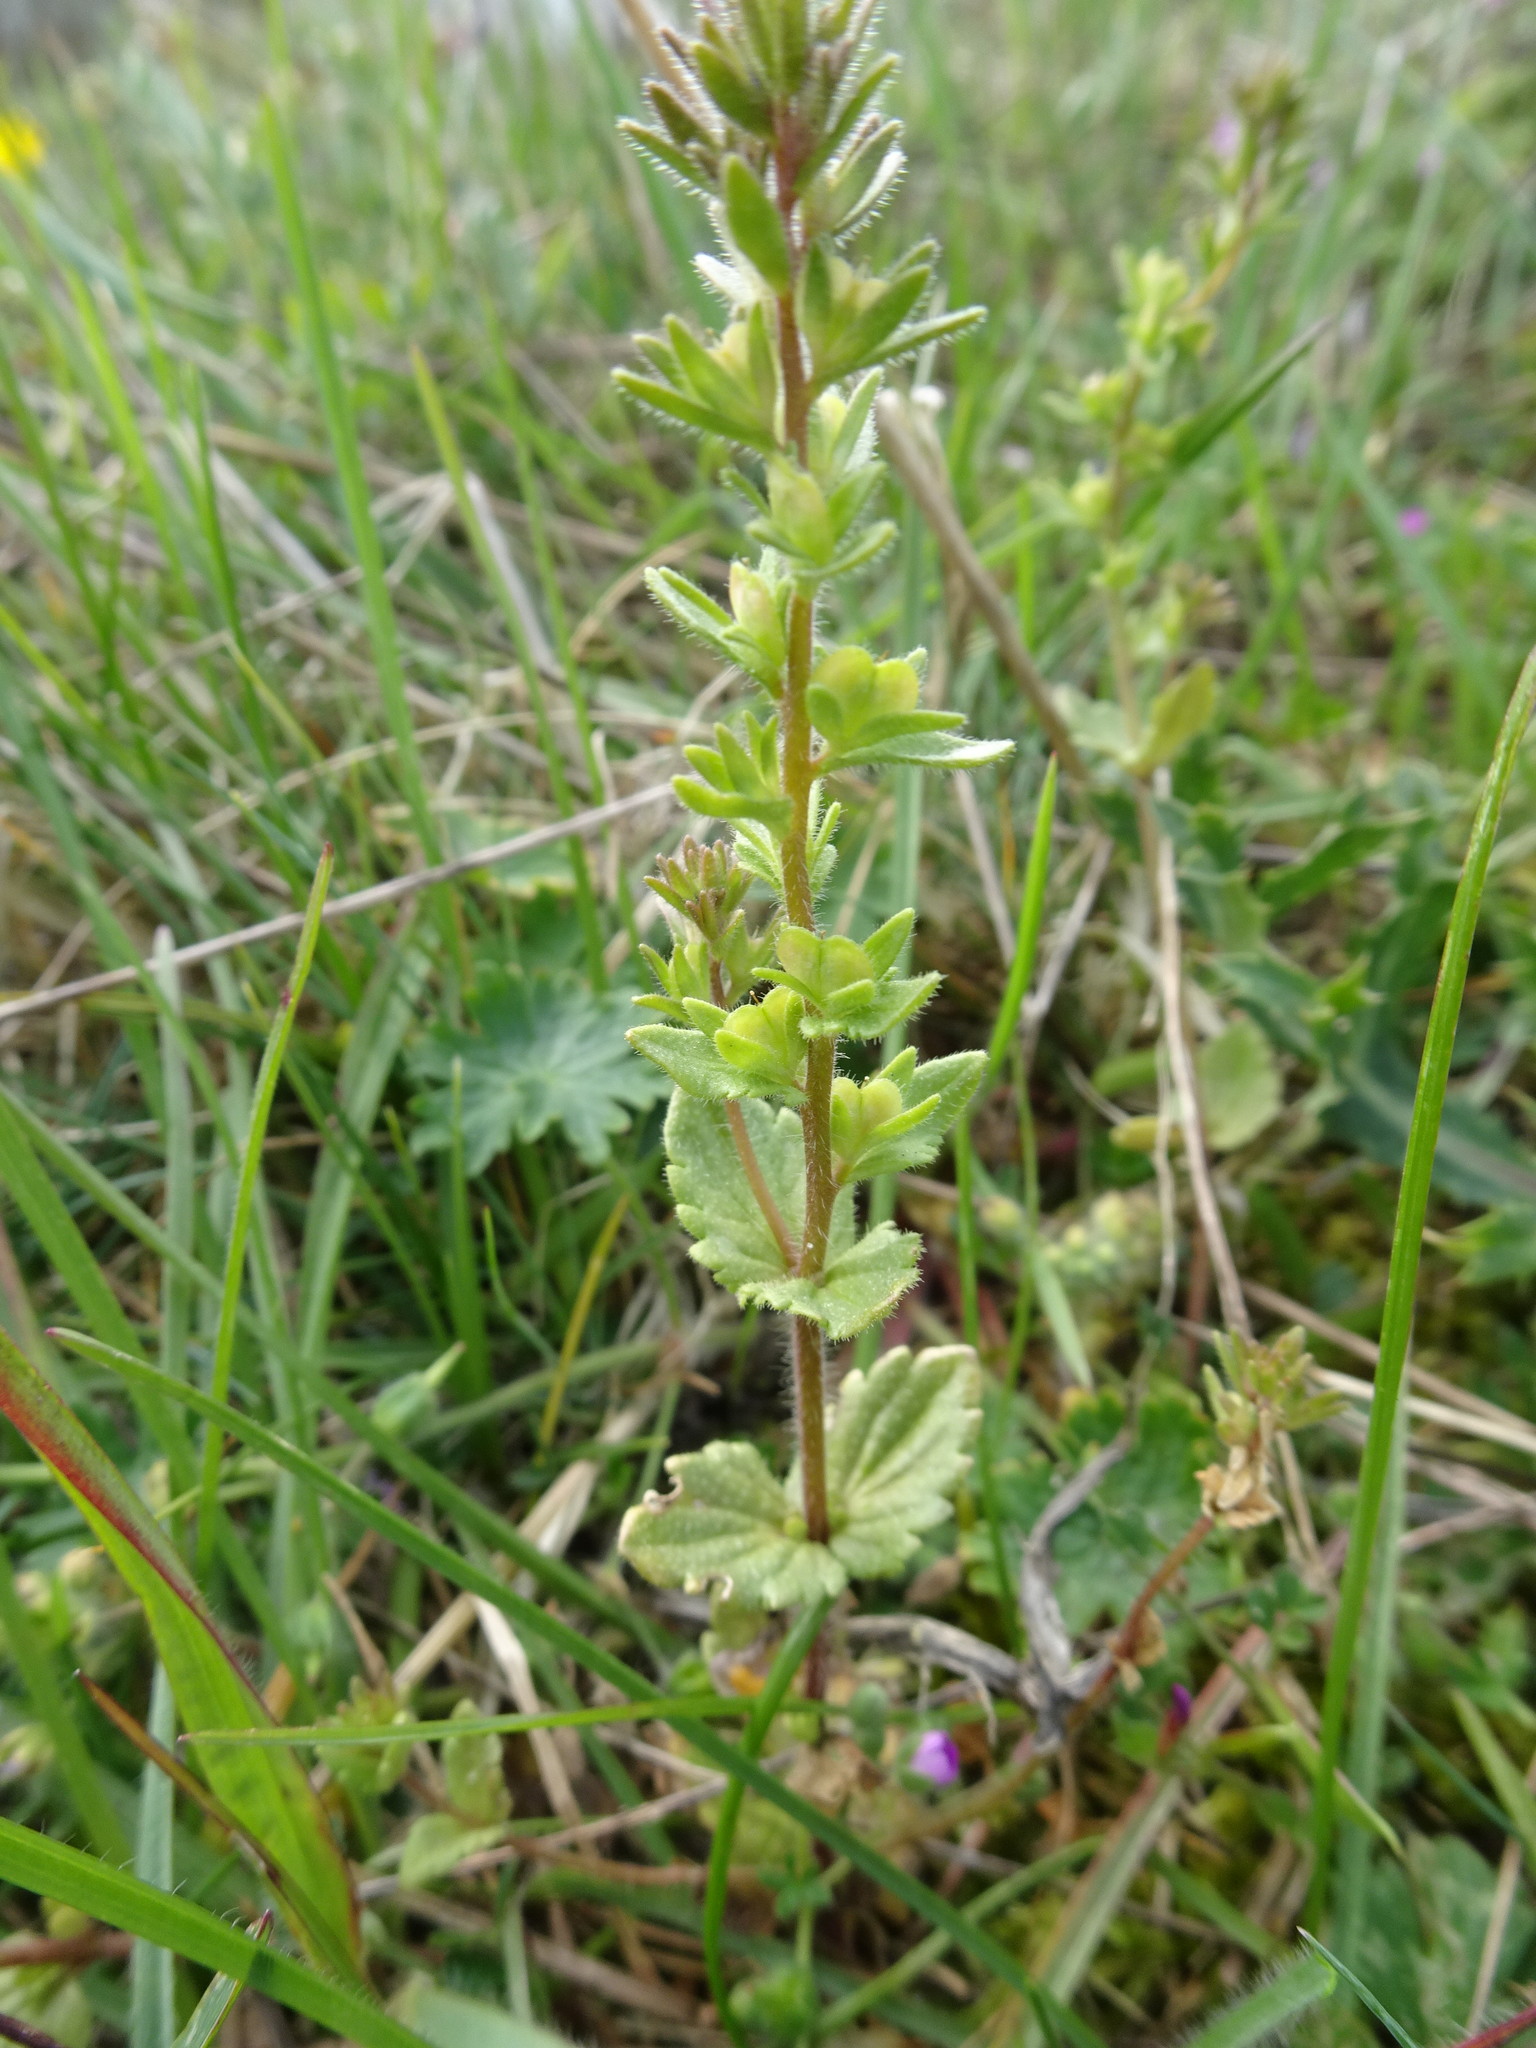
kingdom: Plantae
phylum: Tracheophyta
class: Magnoliopsida
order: Lamiales
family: Plantaginaceae
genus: Veronica
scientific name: Veronica arvensis
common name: Corn speedwell
